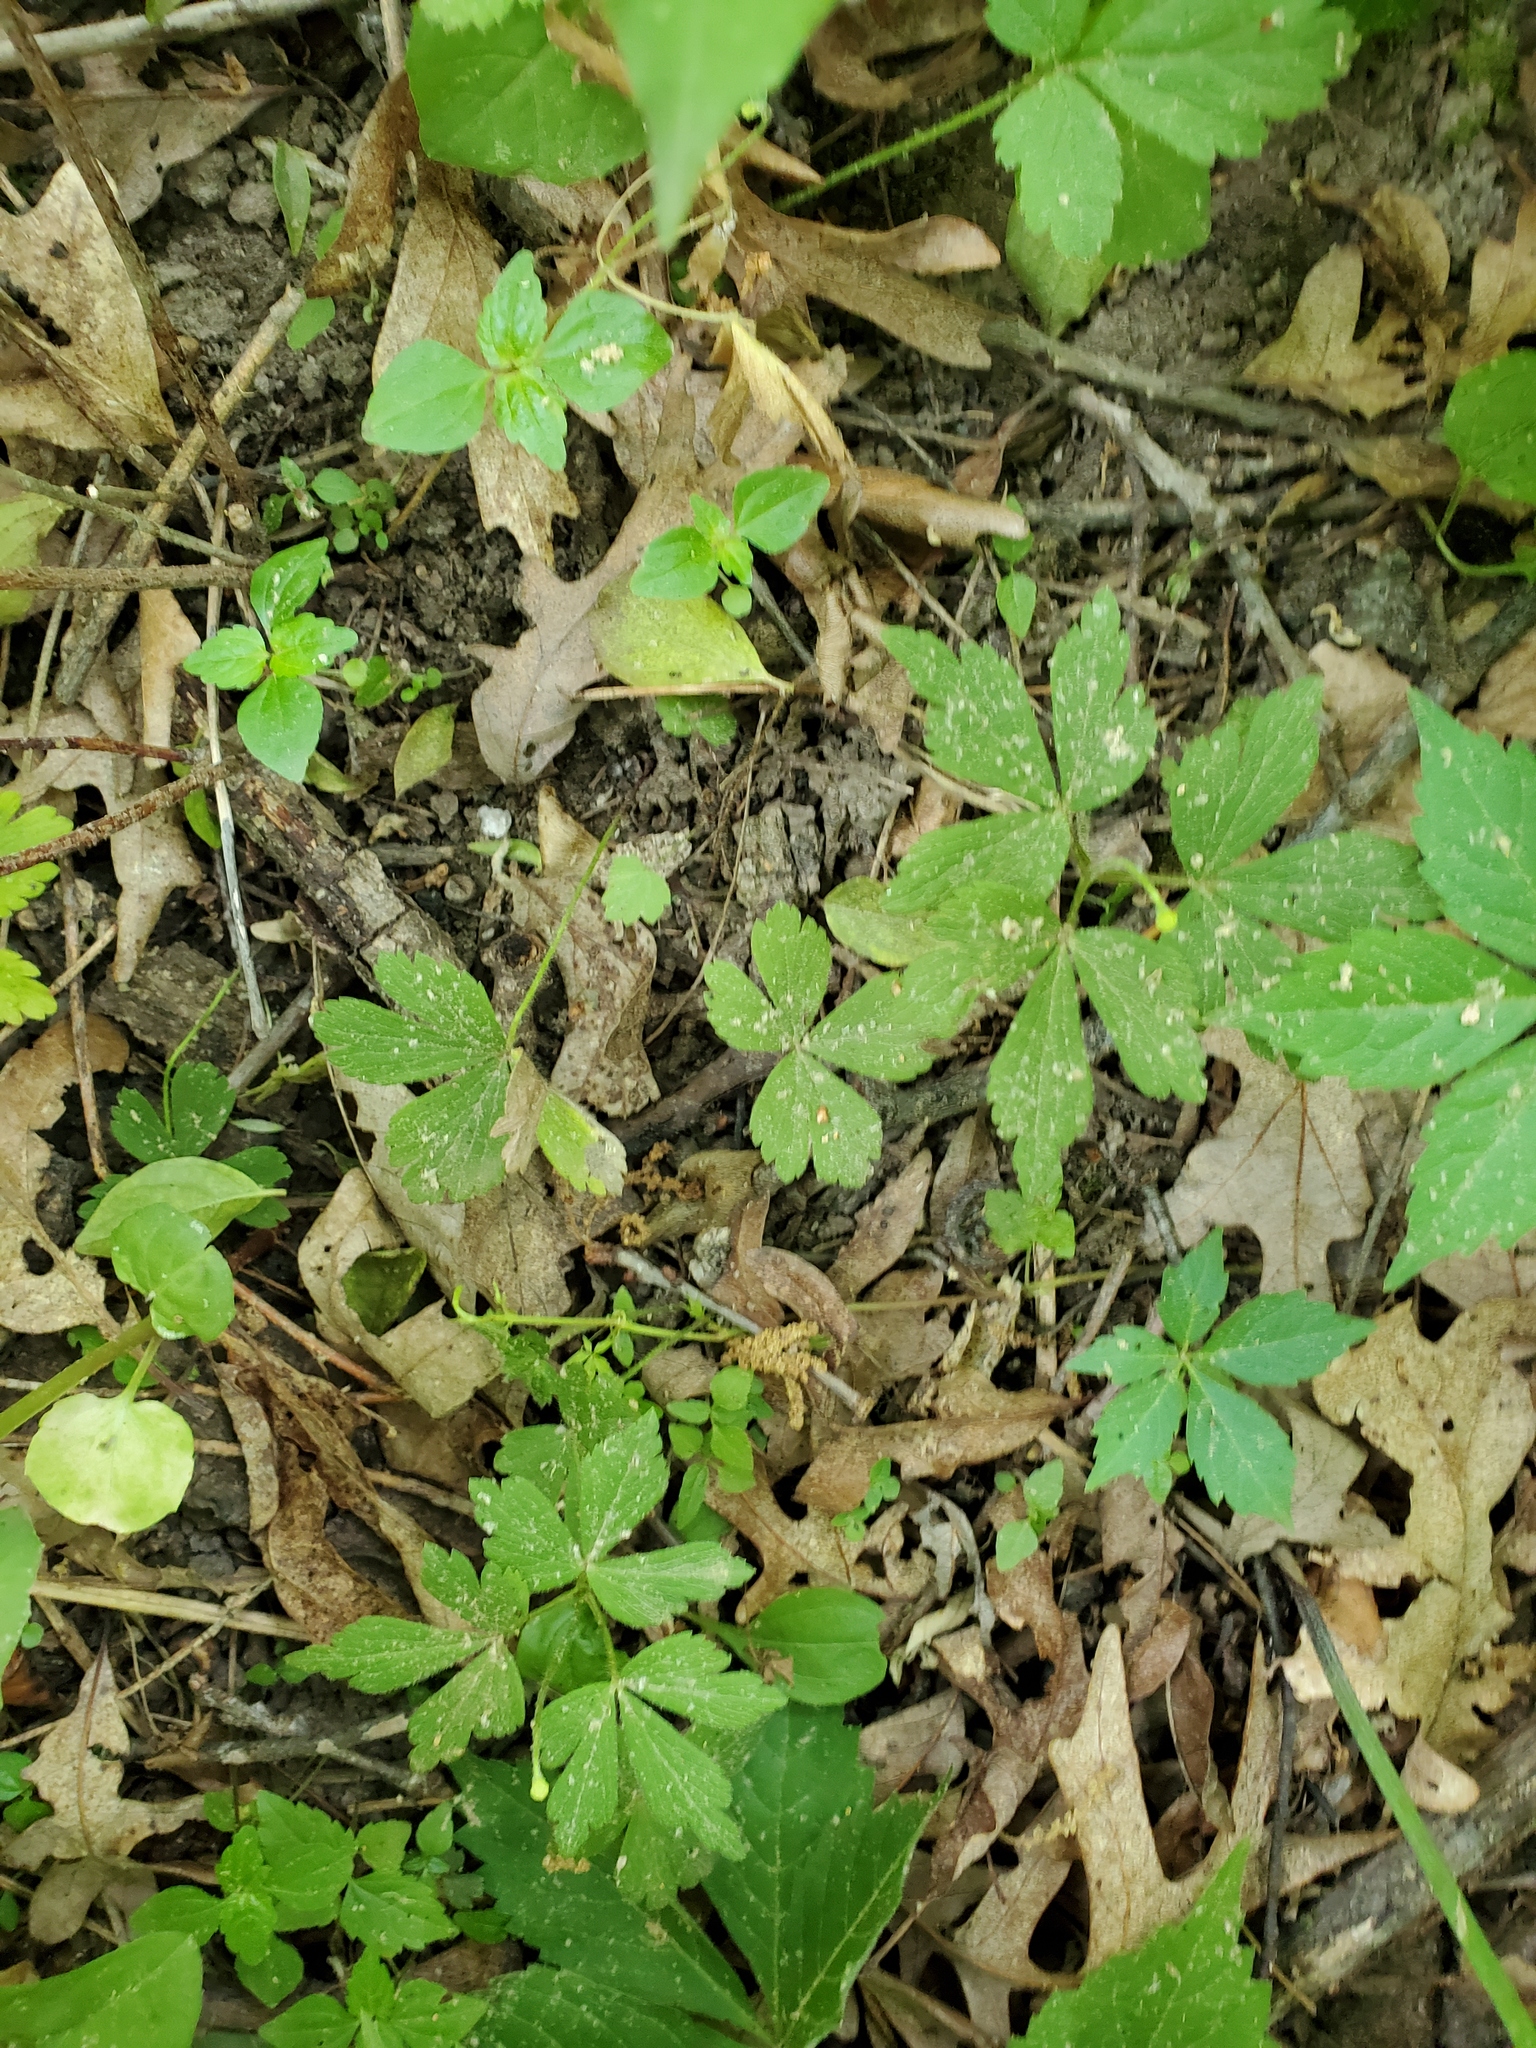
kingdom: Plantae
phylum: Tracheophyta
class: Magnoliopsida
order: Ranunculales
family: Ranunculaceae
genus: Anemone
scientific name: Anemone quinquefolia
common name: Wood anemone
